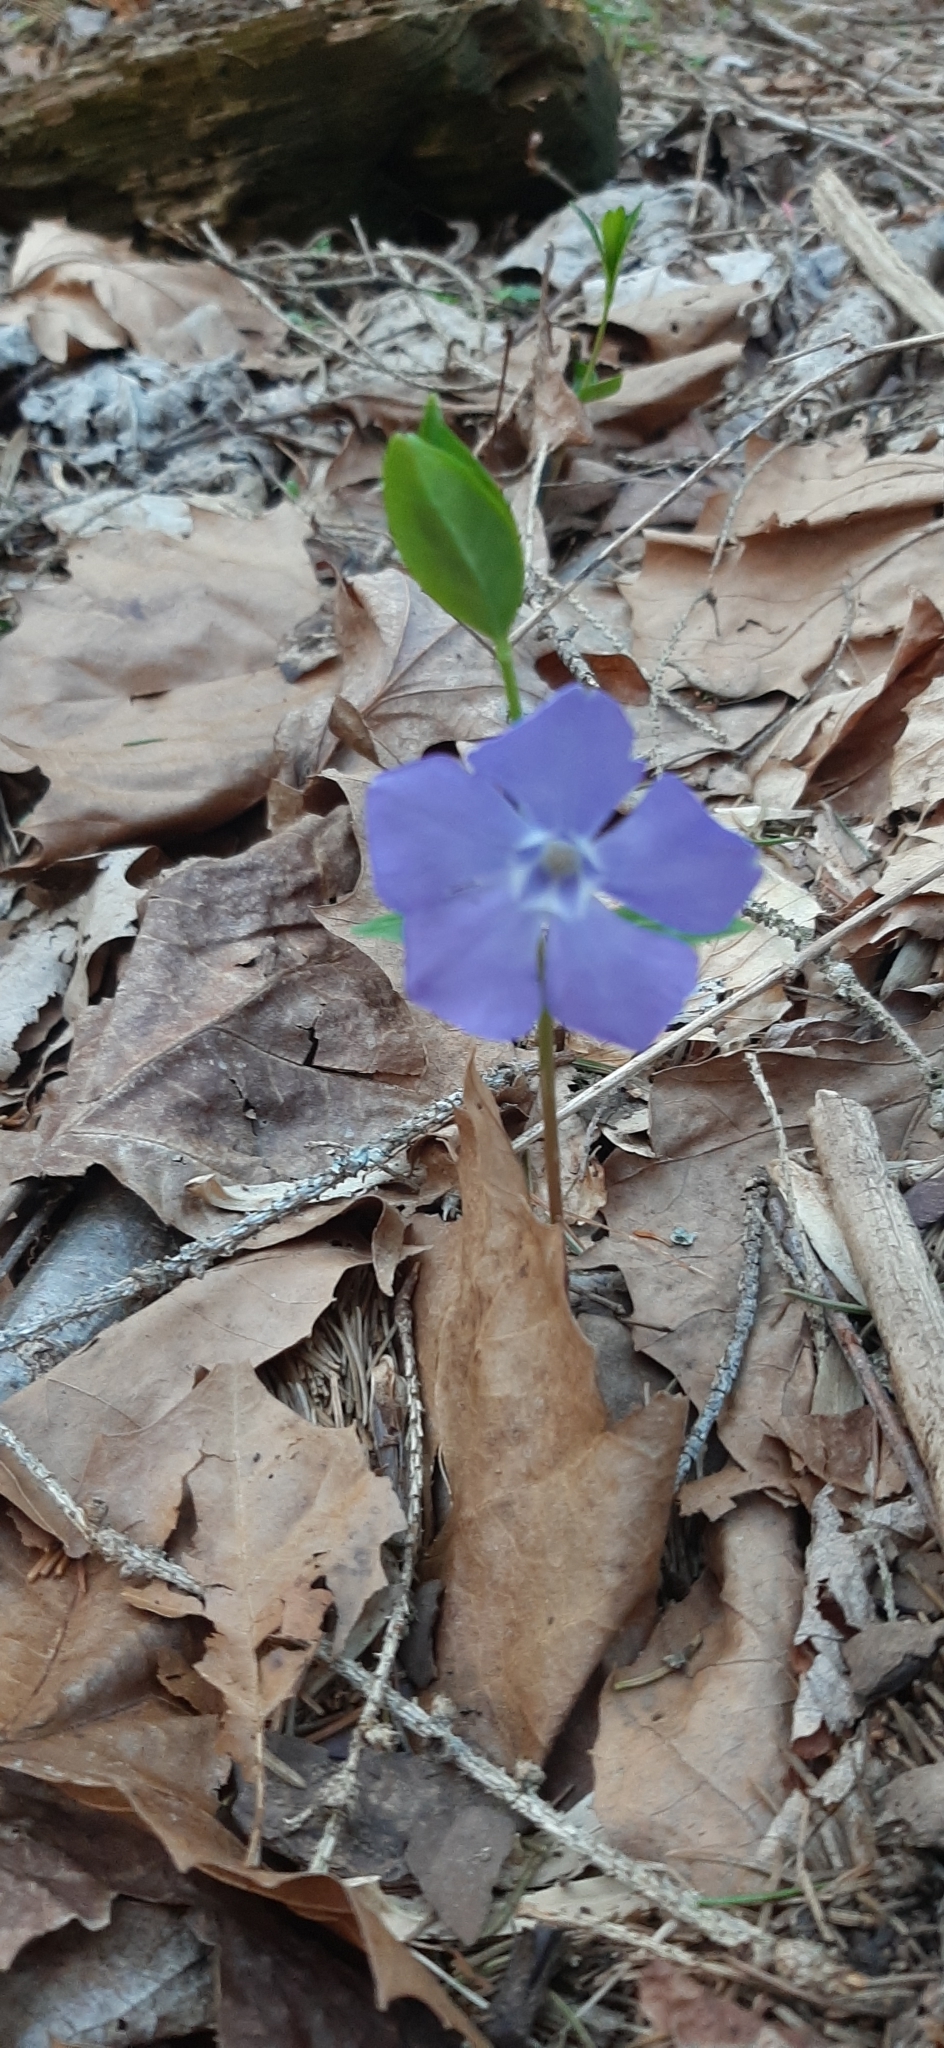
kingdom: Plantae
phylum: Tracheophyta
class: Magnoliopsida
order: Gentianales
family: Apocynaceae
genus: Vinca
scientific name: Vinca minor
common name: Lesser periwinkle
